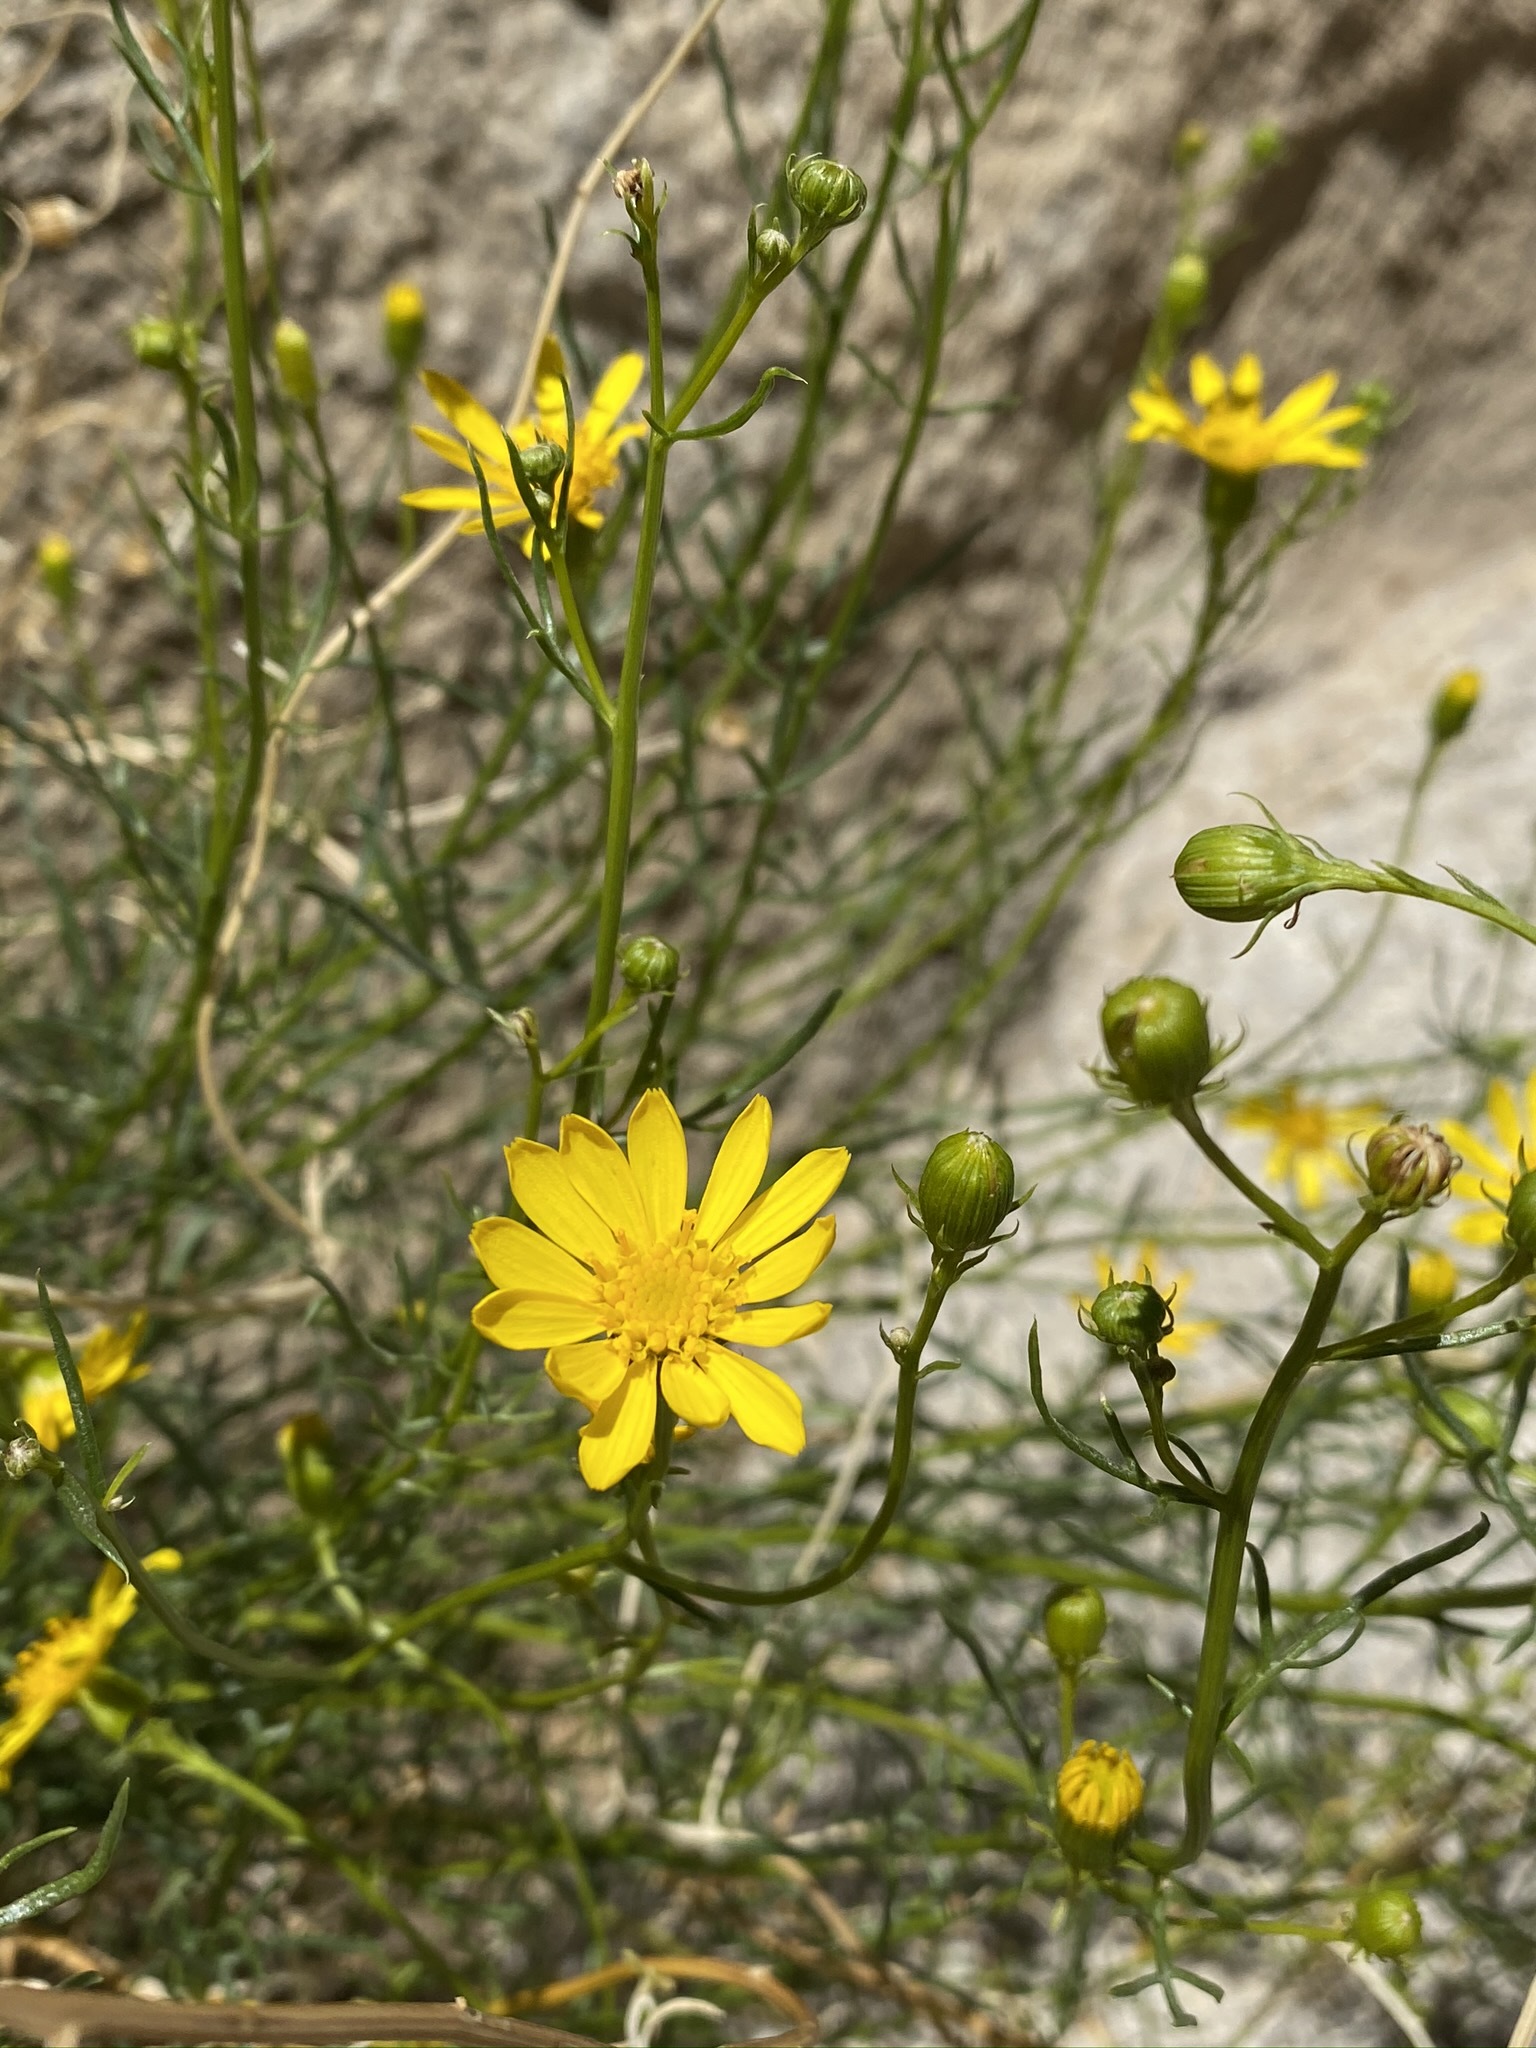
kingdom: Plantae
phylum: Tracheophyta
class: Magnoliopsida
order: Asterales
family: Asteraceae
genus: Senecio
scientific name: Senecio flaccidus
